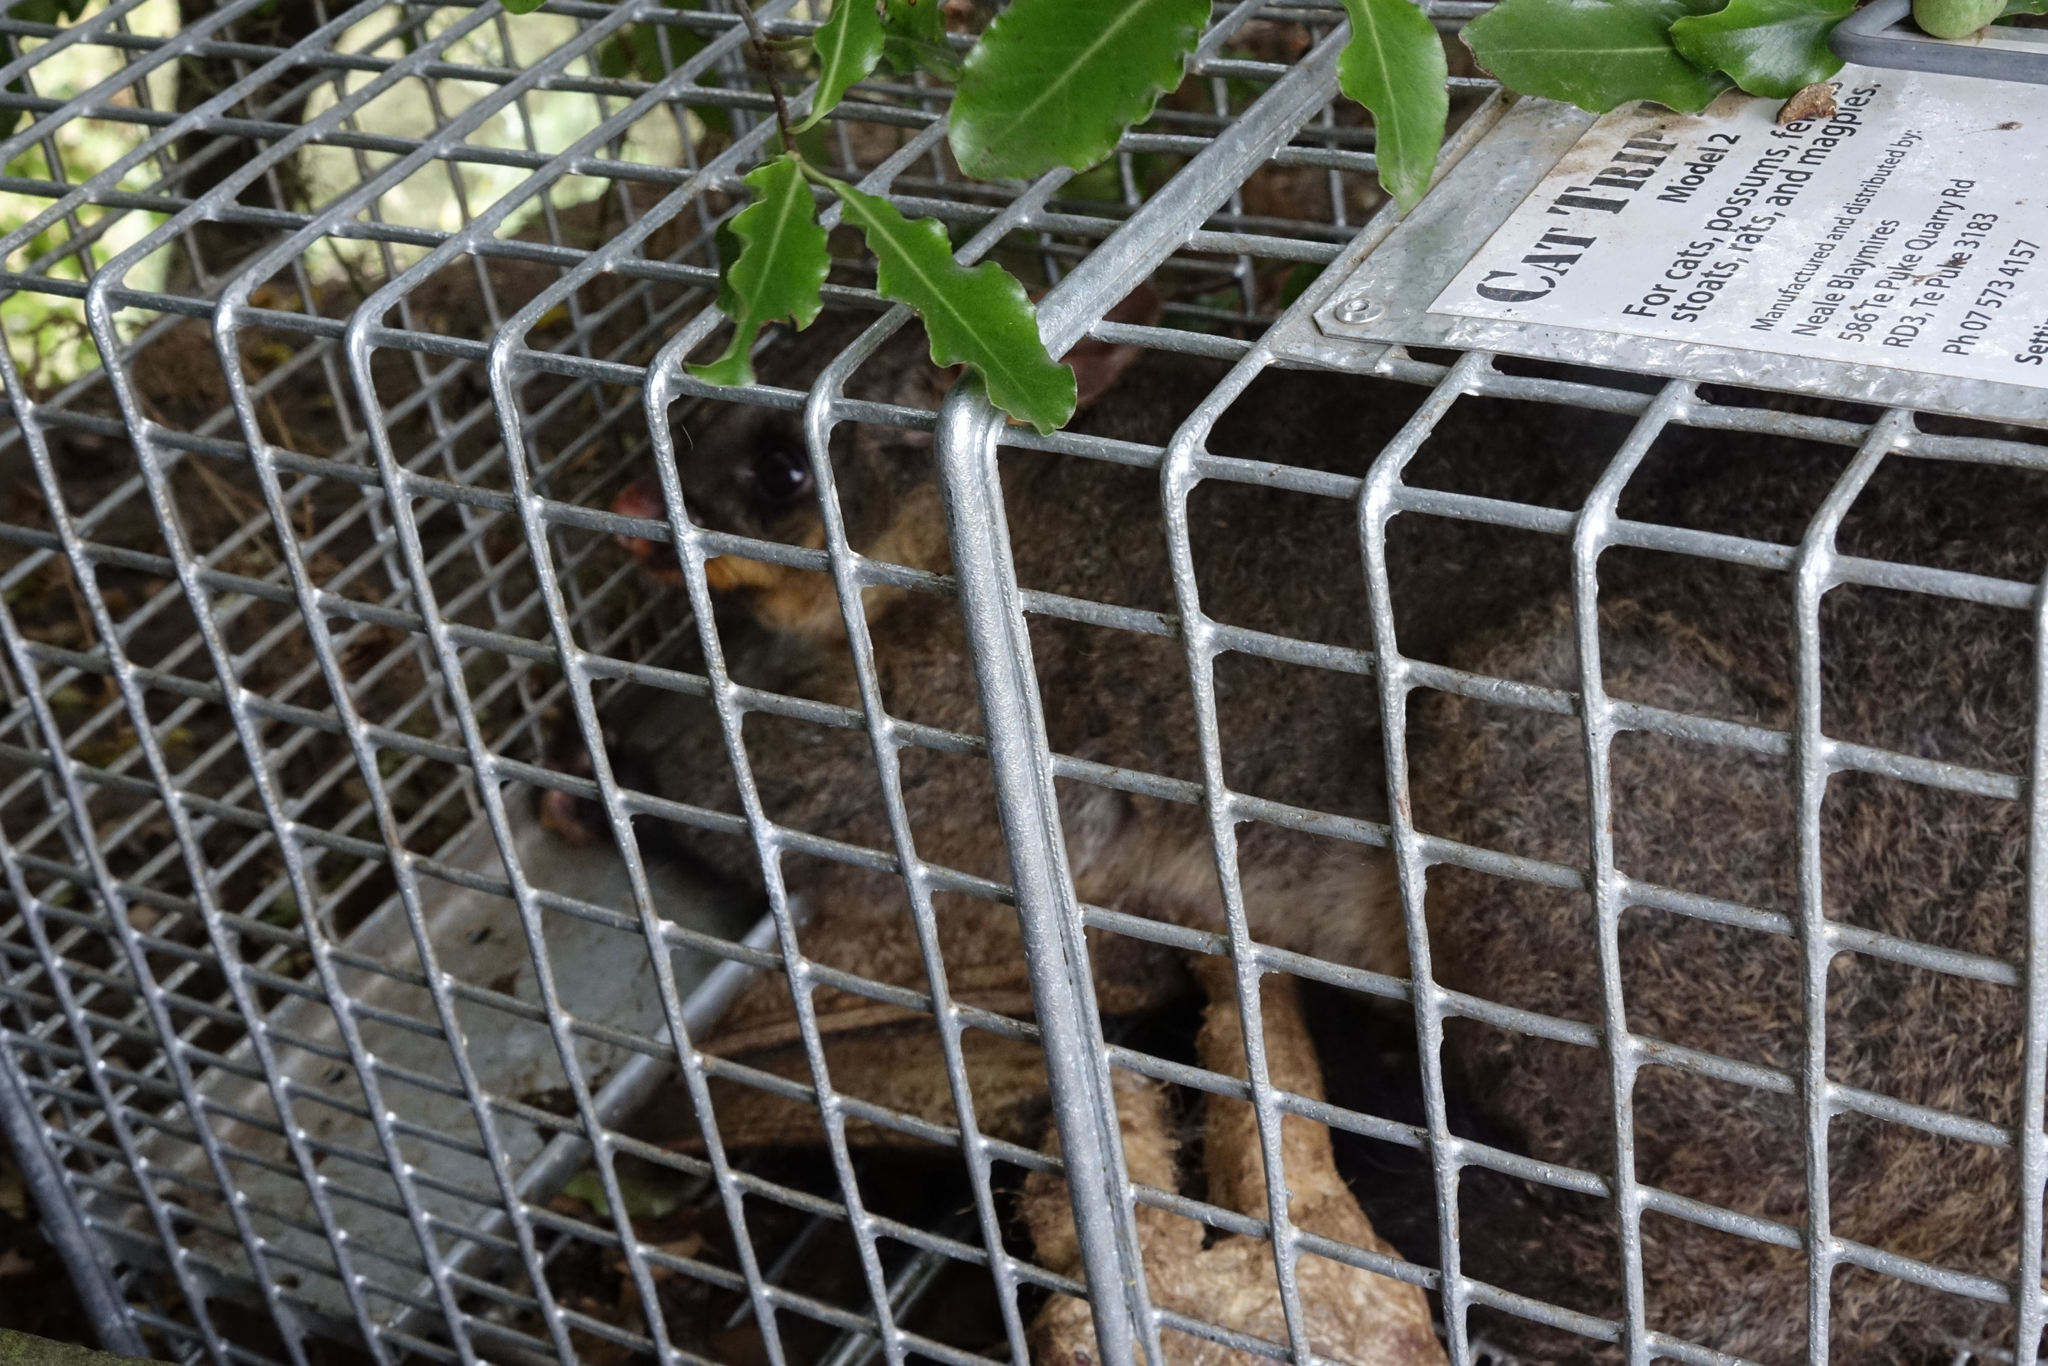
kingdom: Animalia
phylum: Chordata
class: Mammalia
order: Diprotodontia
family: Phalangeridae
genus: Trichosurus
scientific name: Trichosurus vulpecula
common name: Common brushtail
